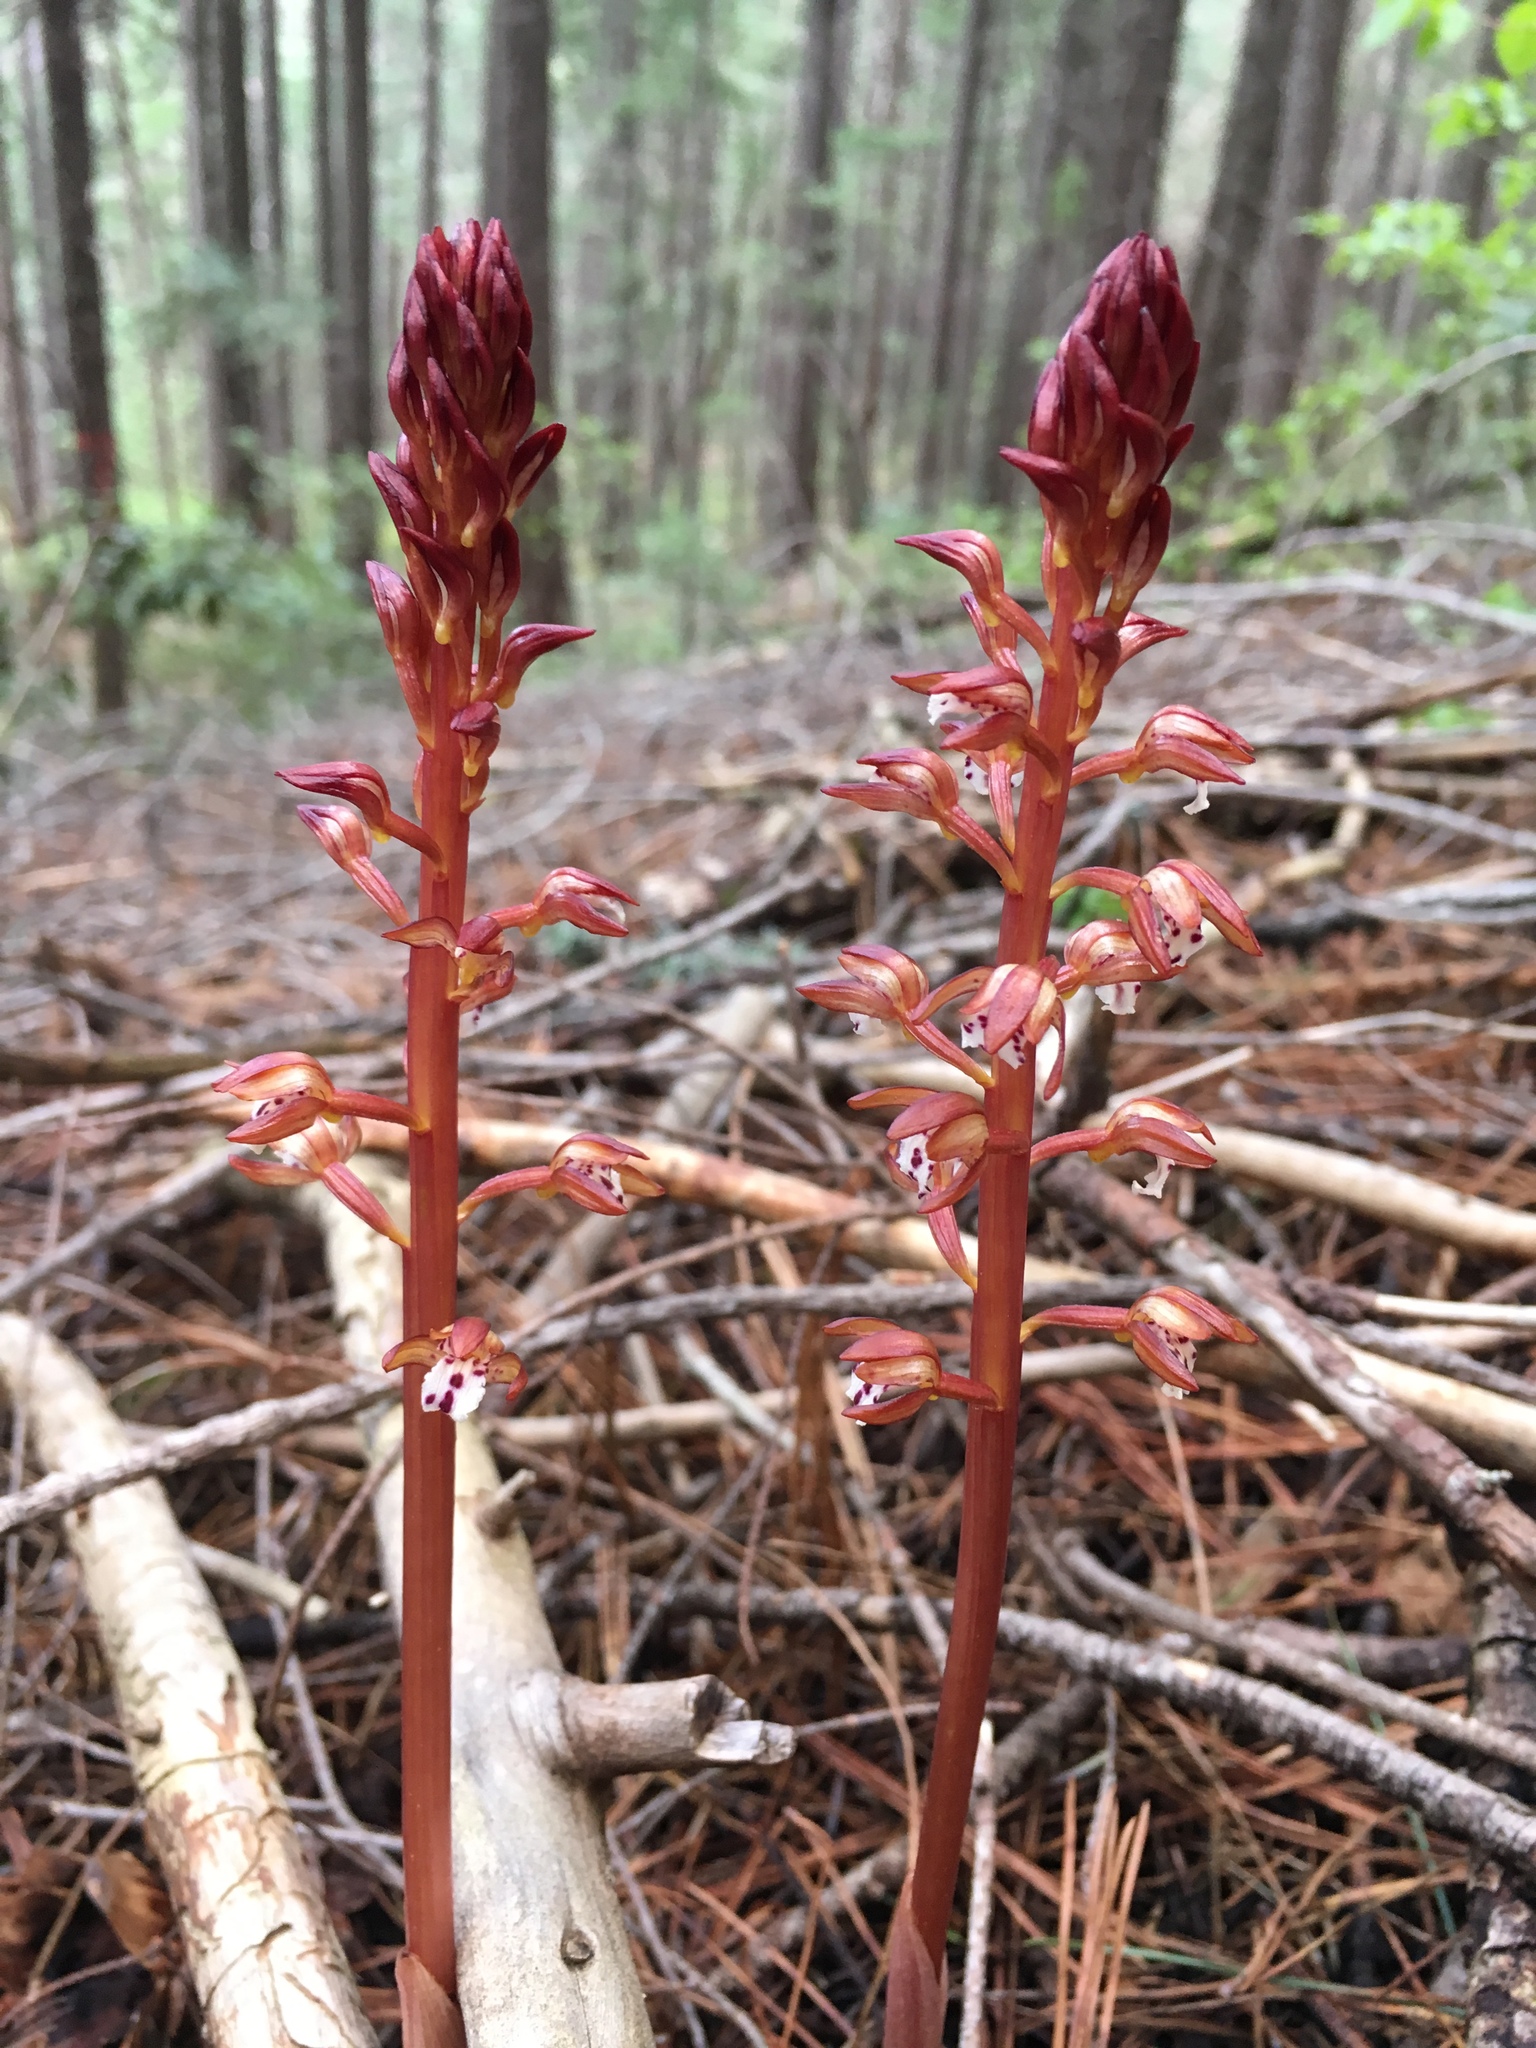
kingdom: Plantae
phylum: Tracheophyta
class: Liliopsida
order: Asparagales
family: Orchidaceae
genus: Corallorhiza
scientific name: Corallorhiza maculata
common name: Spotted coralroot
